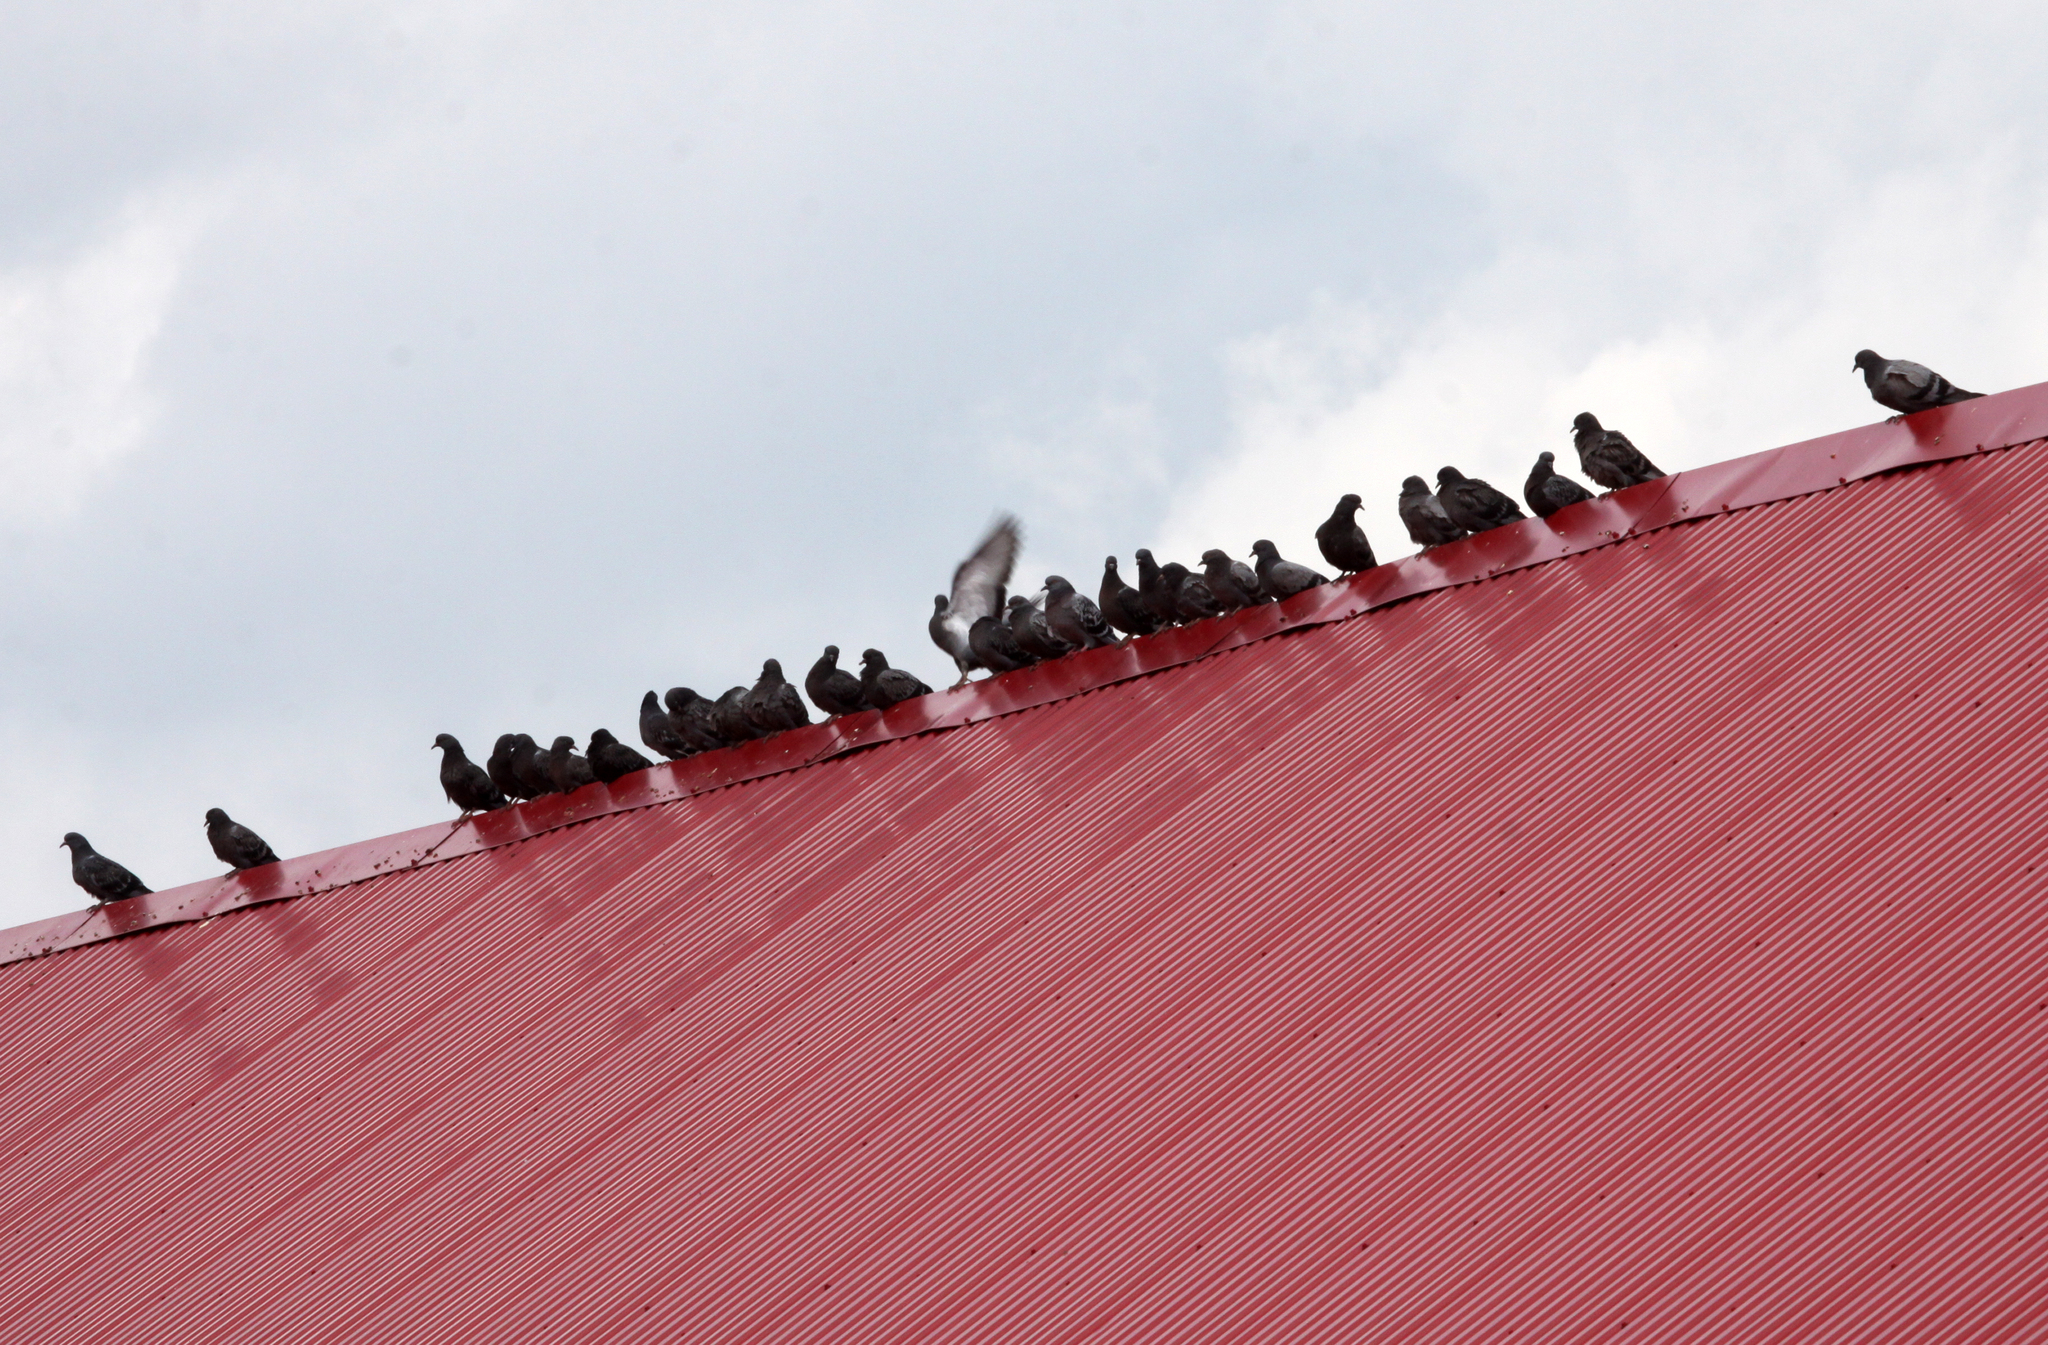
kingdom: Animalia
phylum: Chordata
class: Aves
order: Columbiformes
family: Columbidae
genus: Columba
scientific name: Columba livia
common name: Rock pigeon
